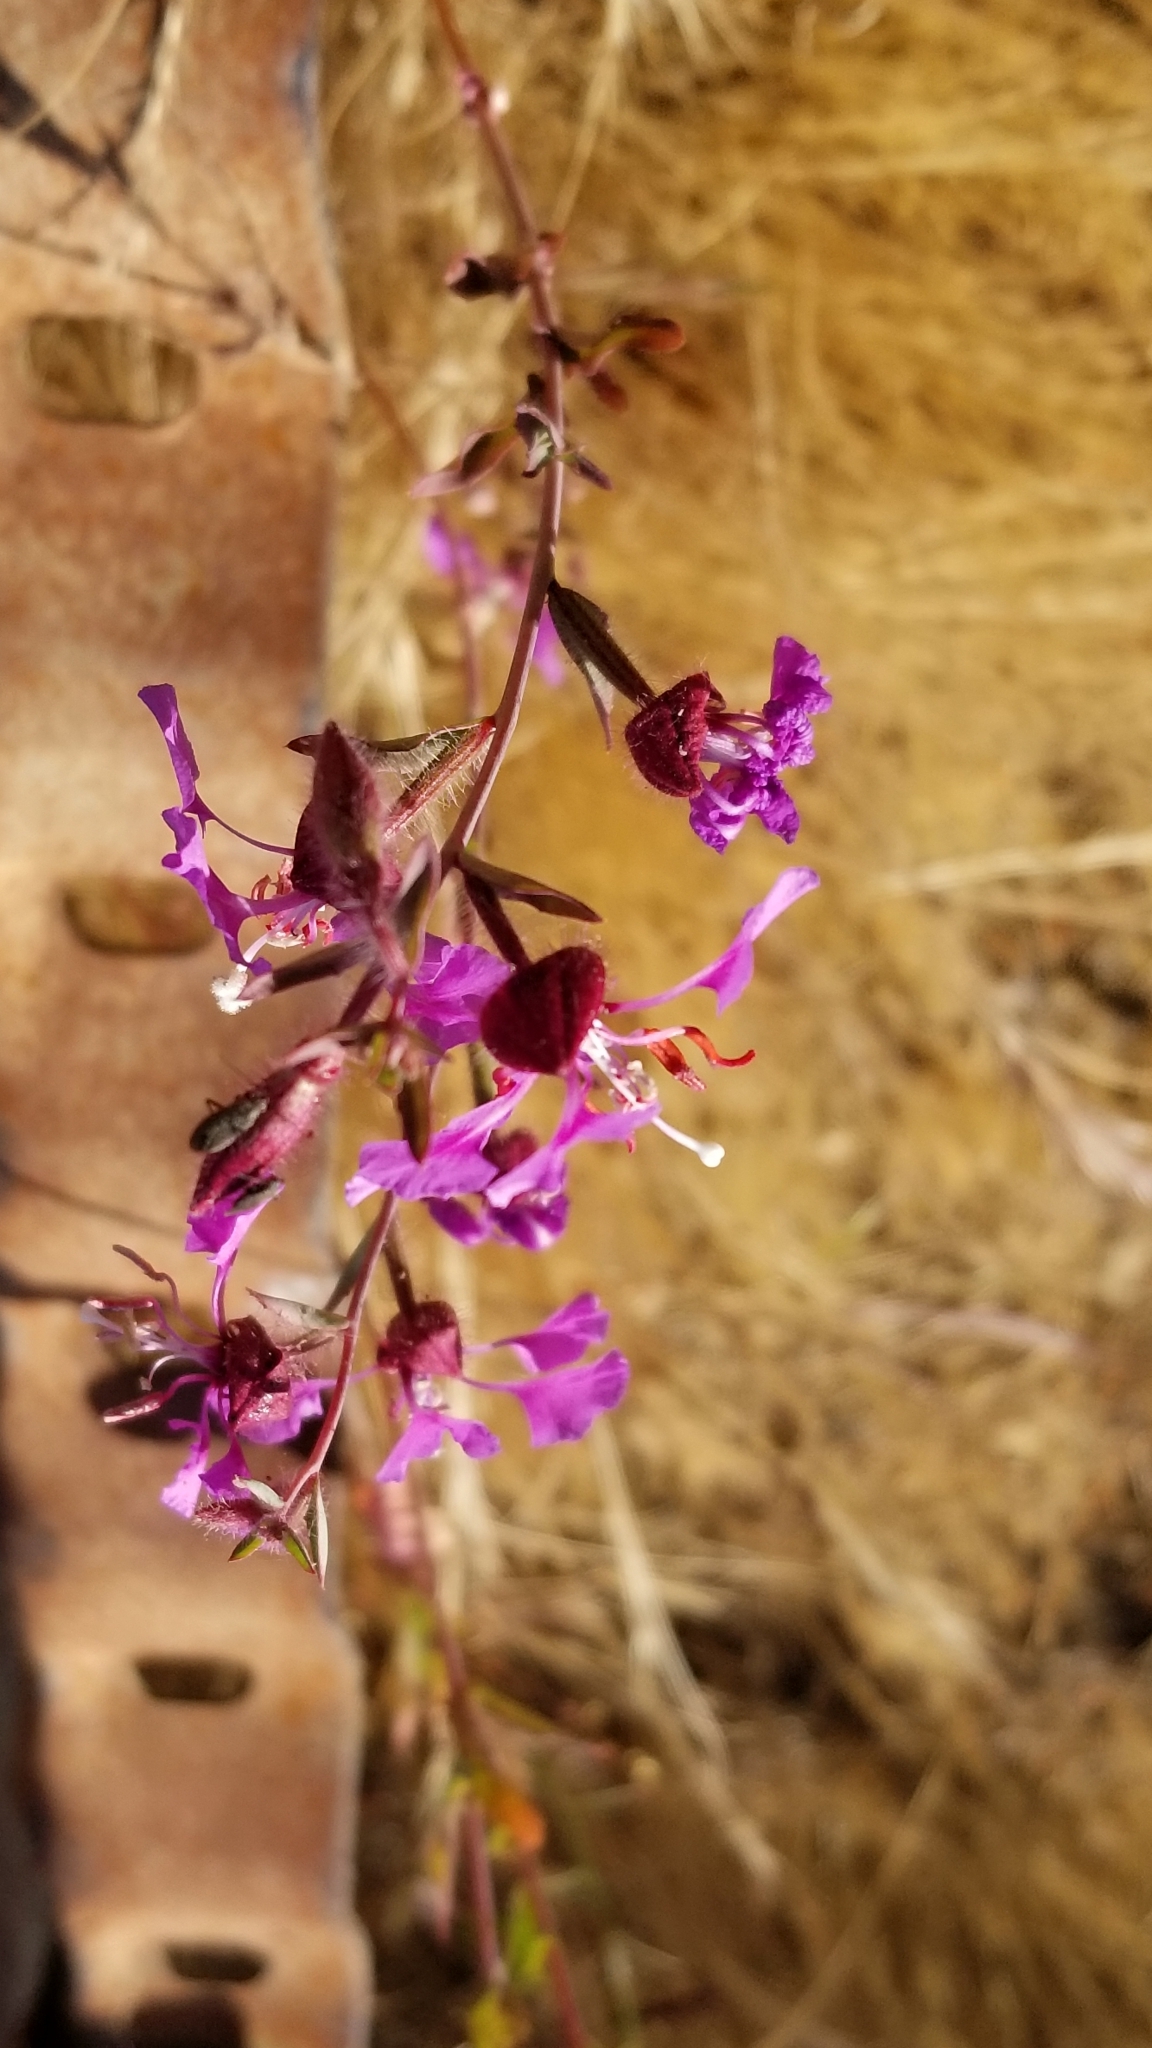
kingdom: Plantae
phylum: Tracheophyta
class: Magnoliopsida
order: Myrtales
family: Onagraceae
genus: Clarkia
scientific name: Clarkia unguiculata
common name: Clarkia
